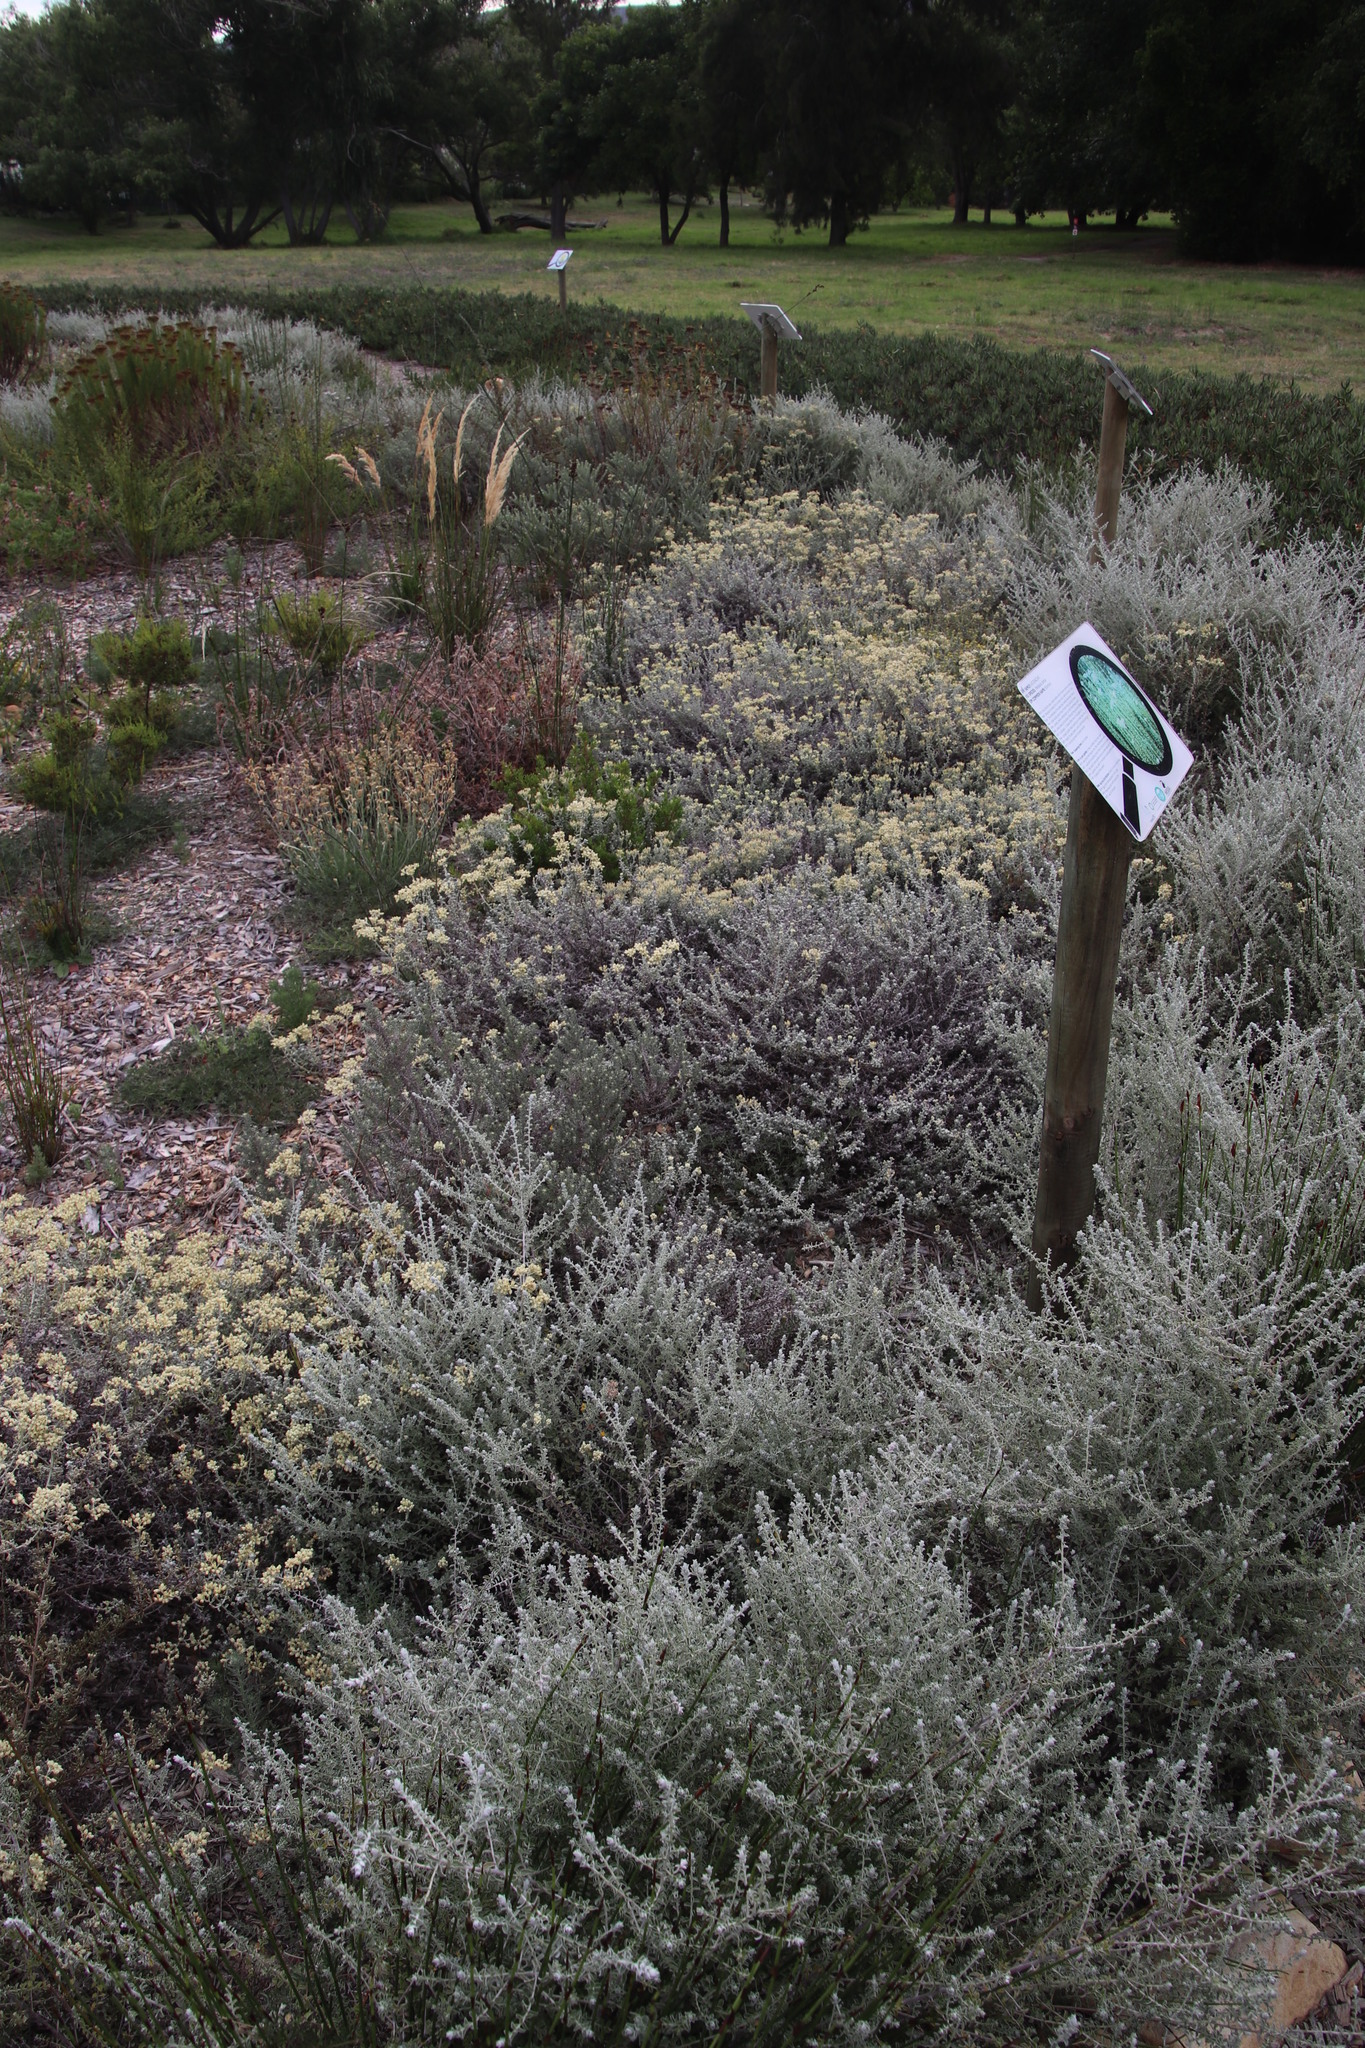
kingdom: Plantae
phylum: Tracheophyta
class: Magnoliopsida
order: Asterales
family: Asteraceae
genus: Helichrysum
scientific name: Helichrysum patulum
